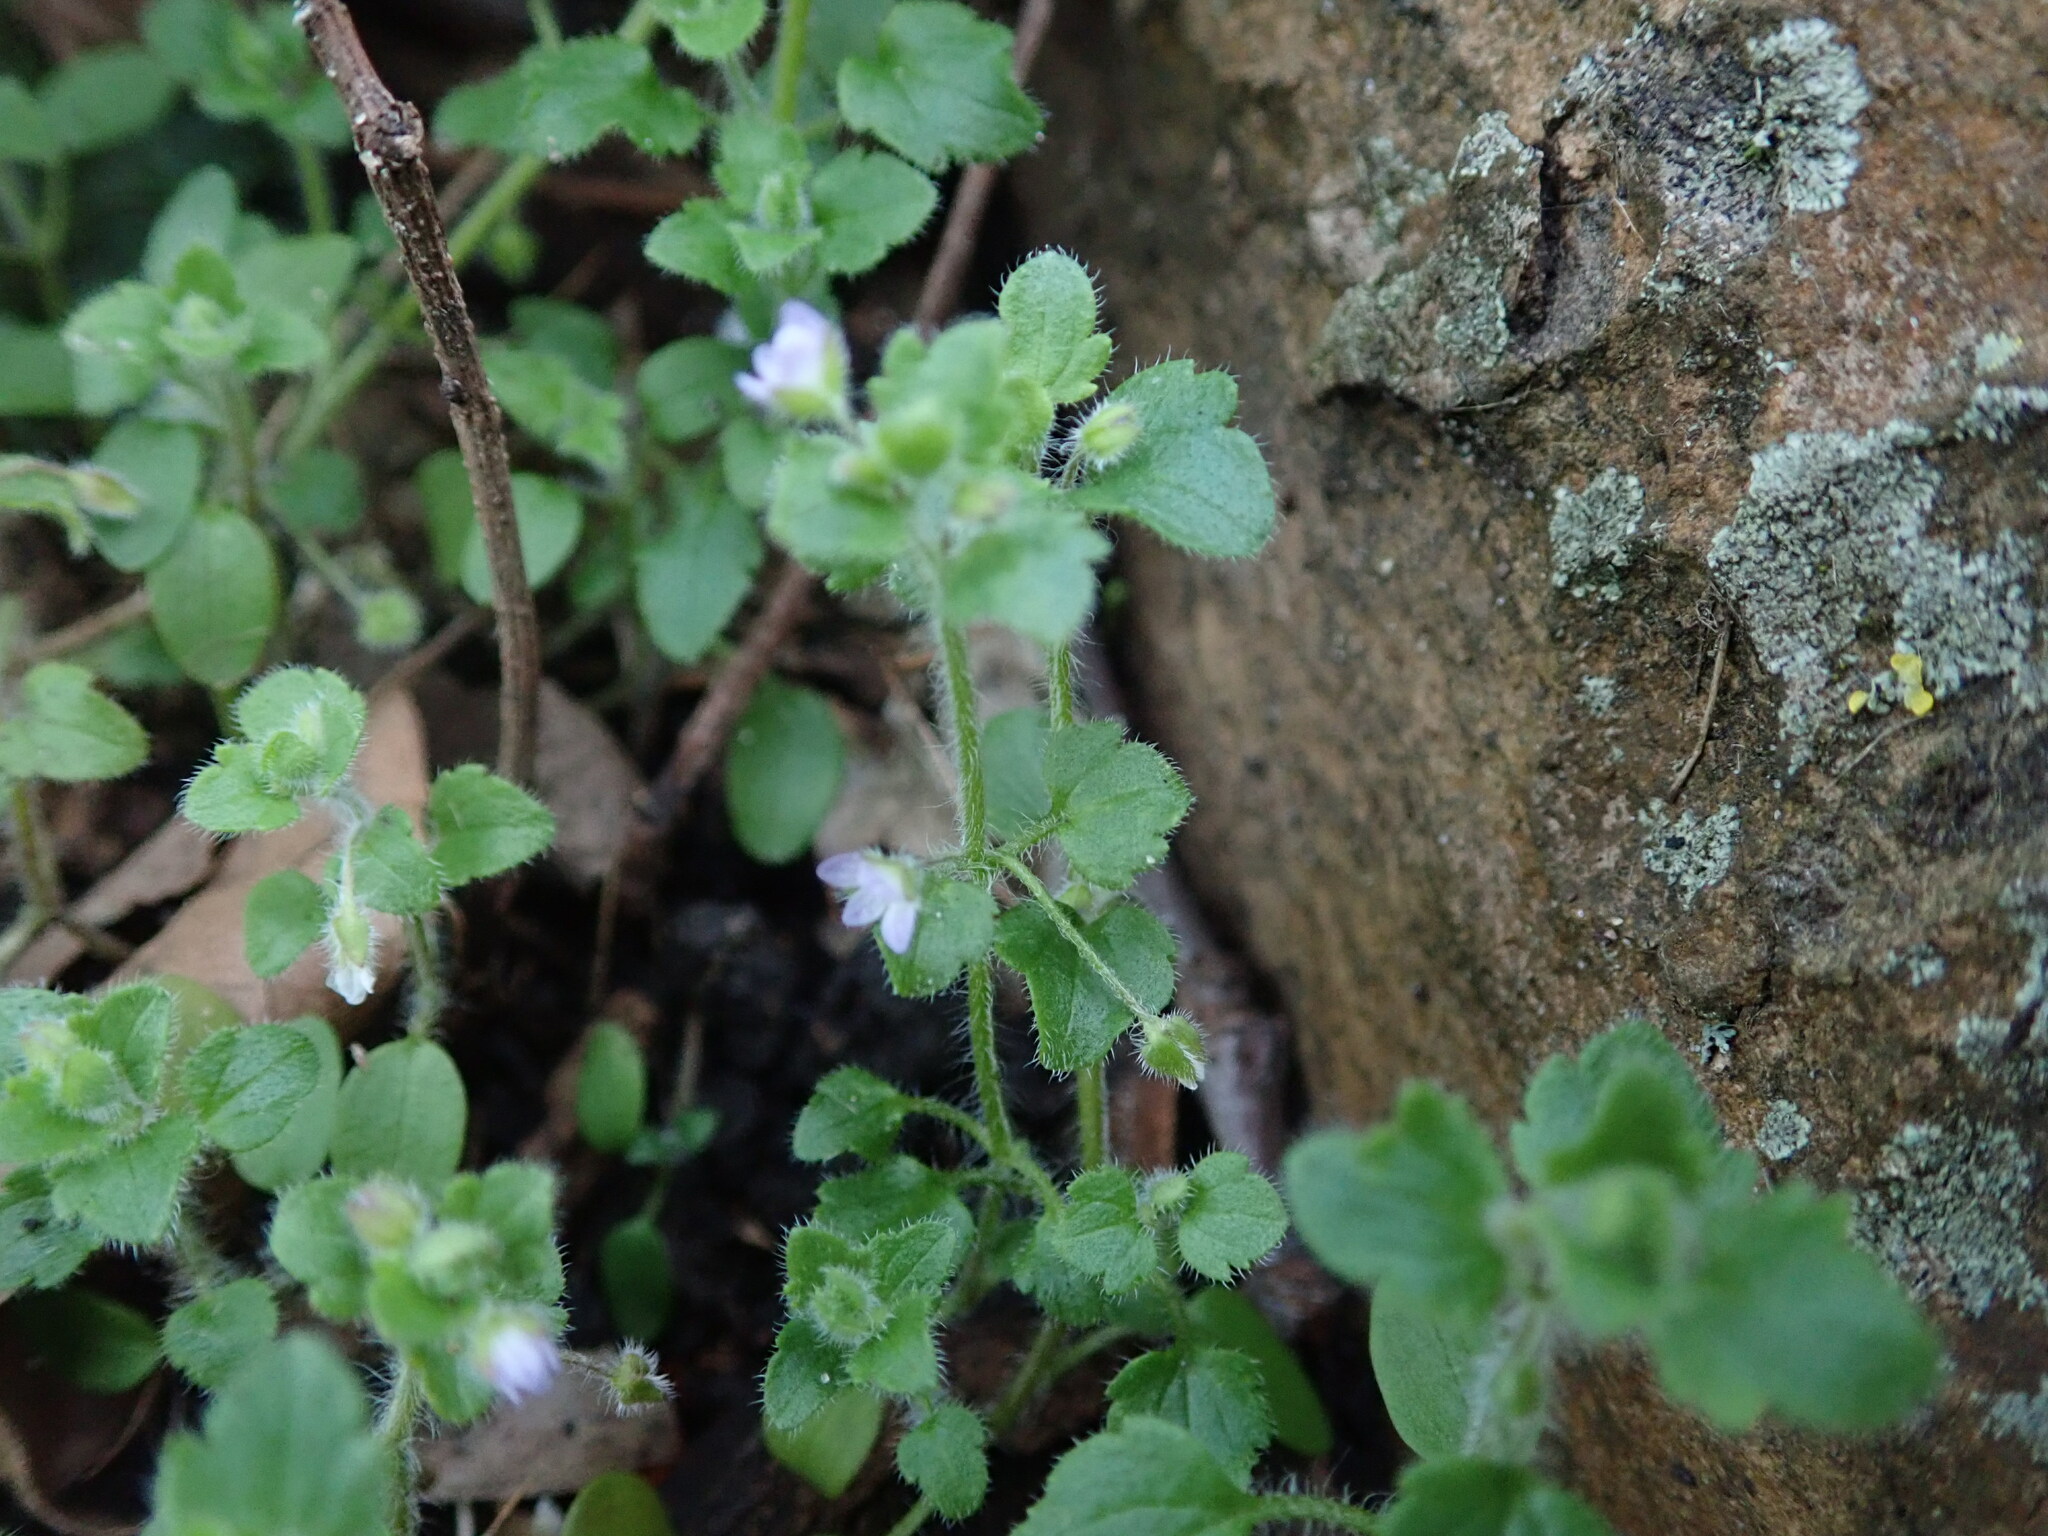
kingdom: Plantae
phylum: Tracheophyta
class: Magnoliopsida
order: Lamiales
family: Plantaginaceae
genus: Veronica
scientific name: Veronica sublobata
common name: False ivy-leaved speedwell
